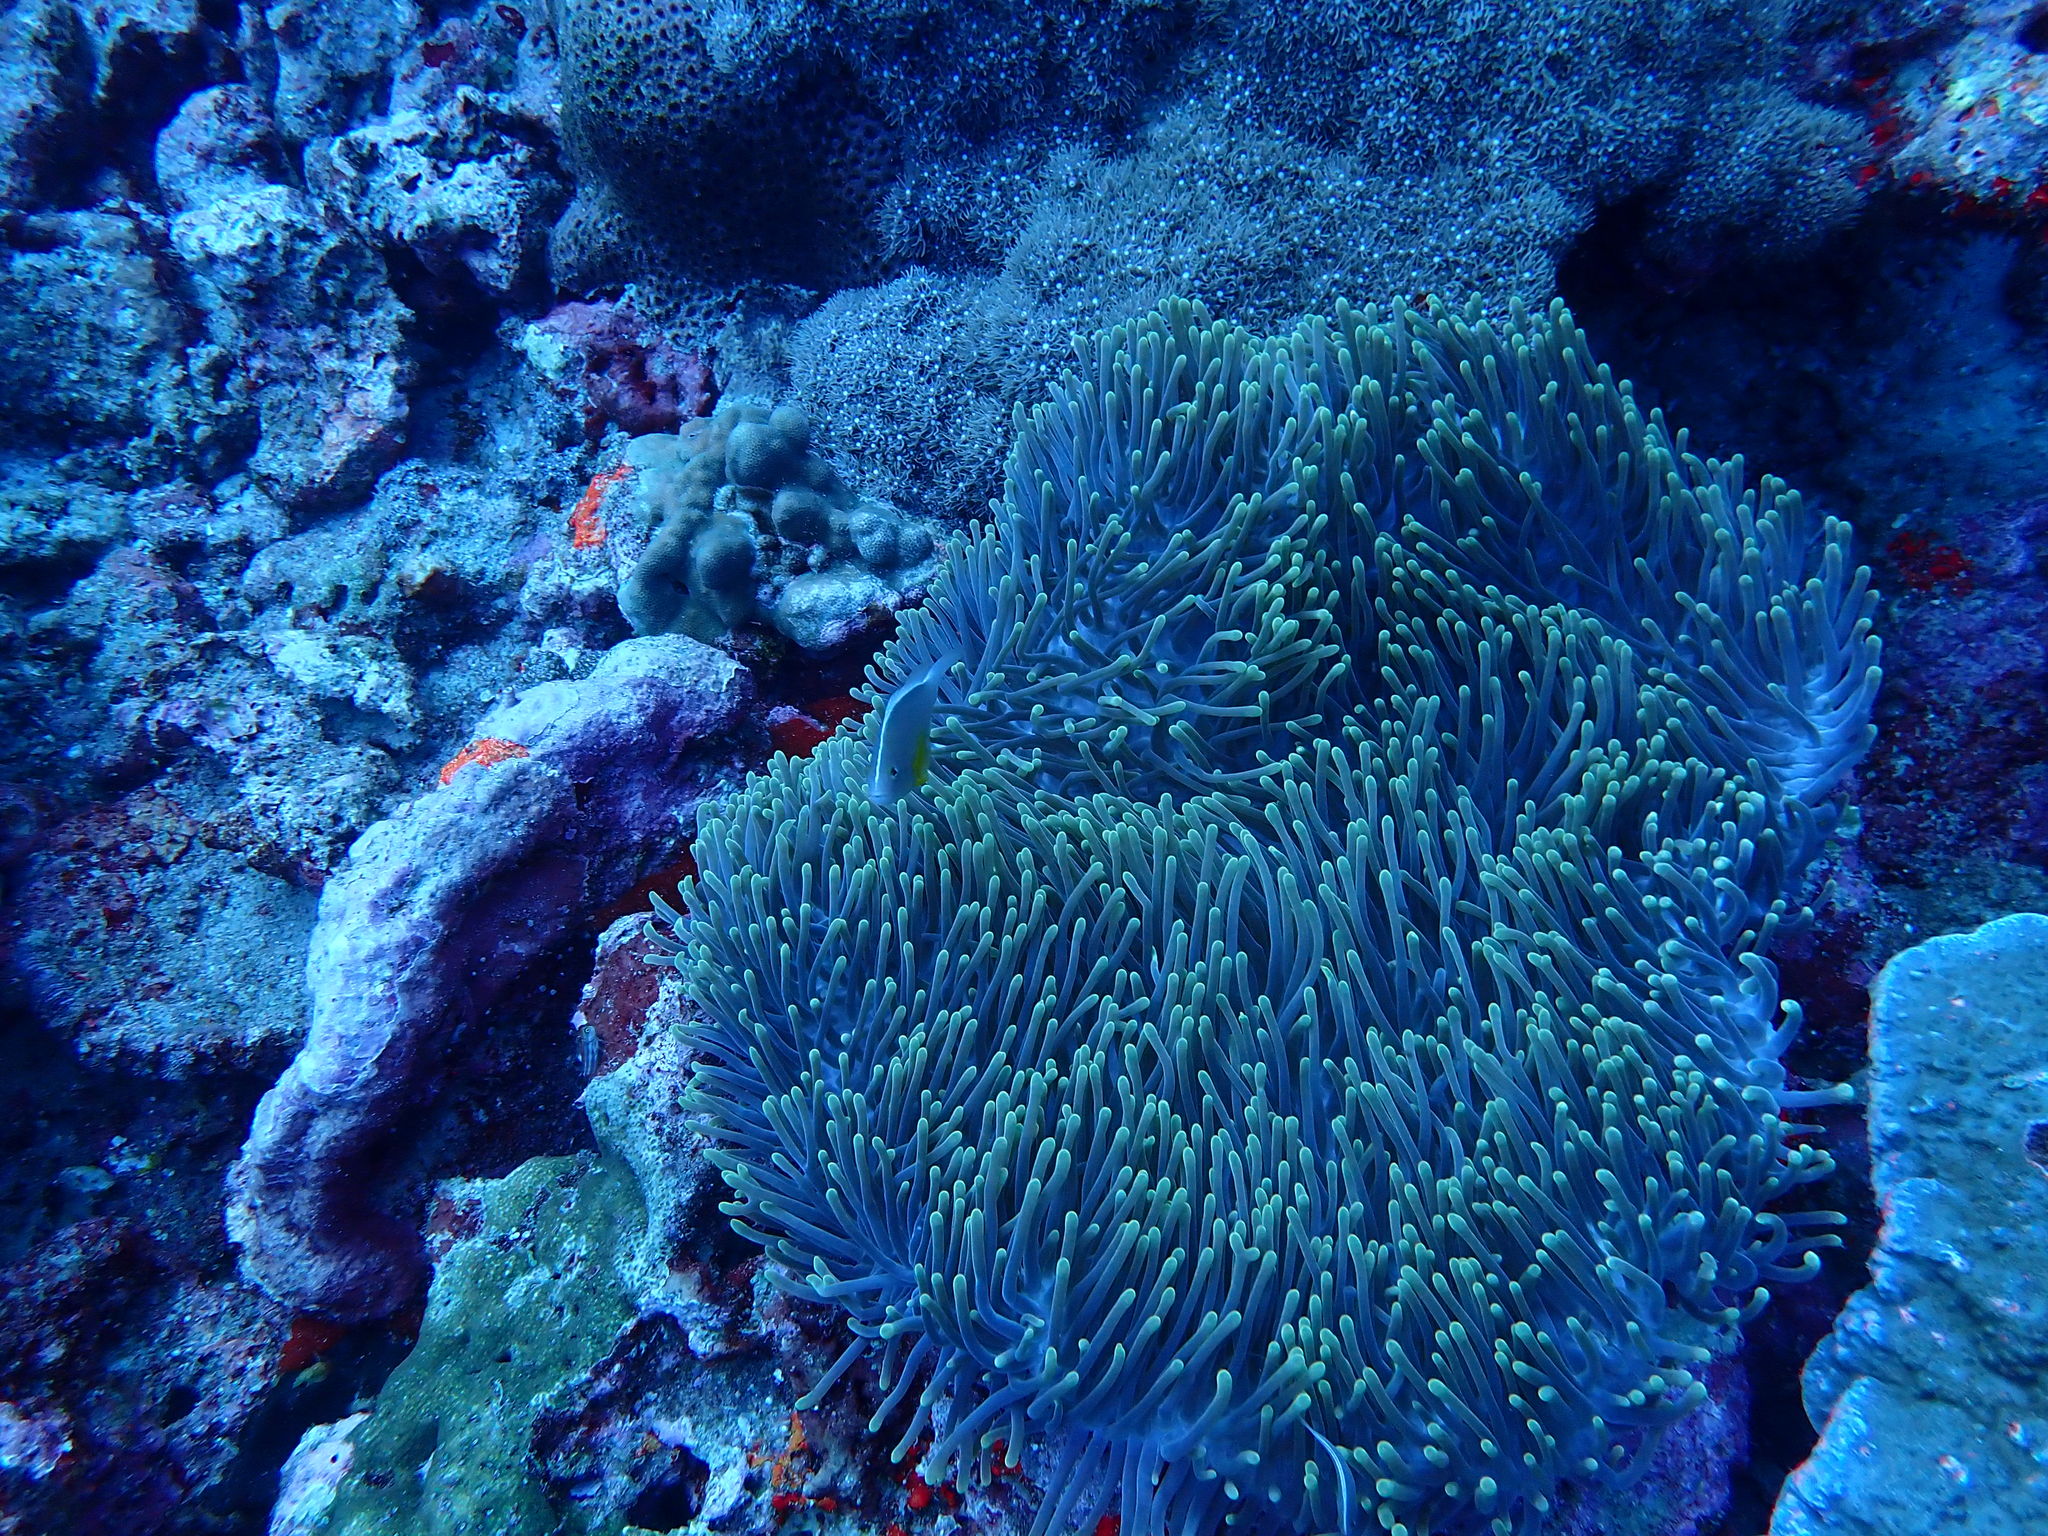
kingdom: Animalia
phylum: Chordata
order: Perciformes
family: Pomacentridae
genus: Amphiprion
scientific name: Amphiprion akallopisos
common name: Skunk clownfish
